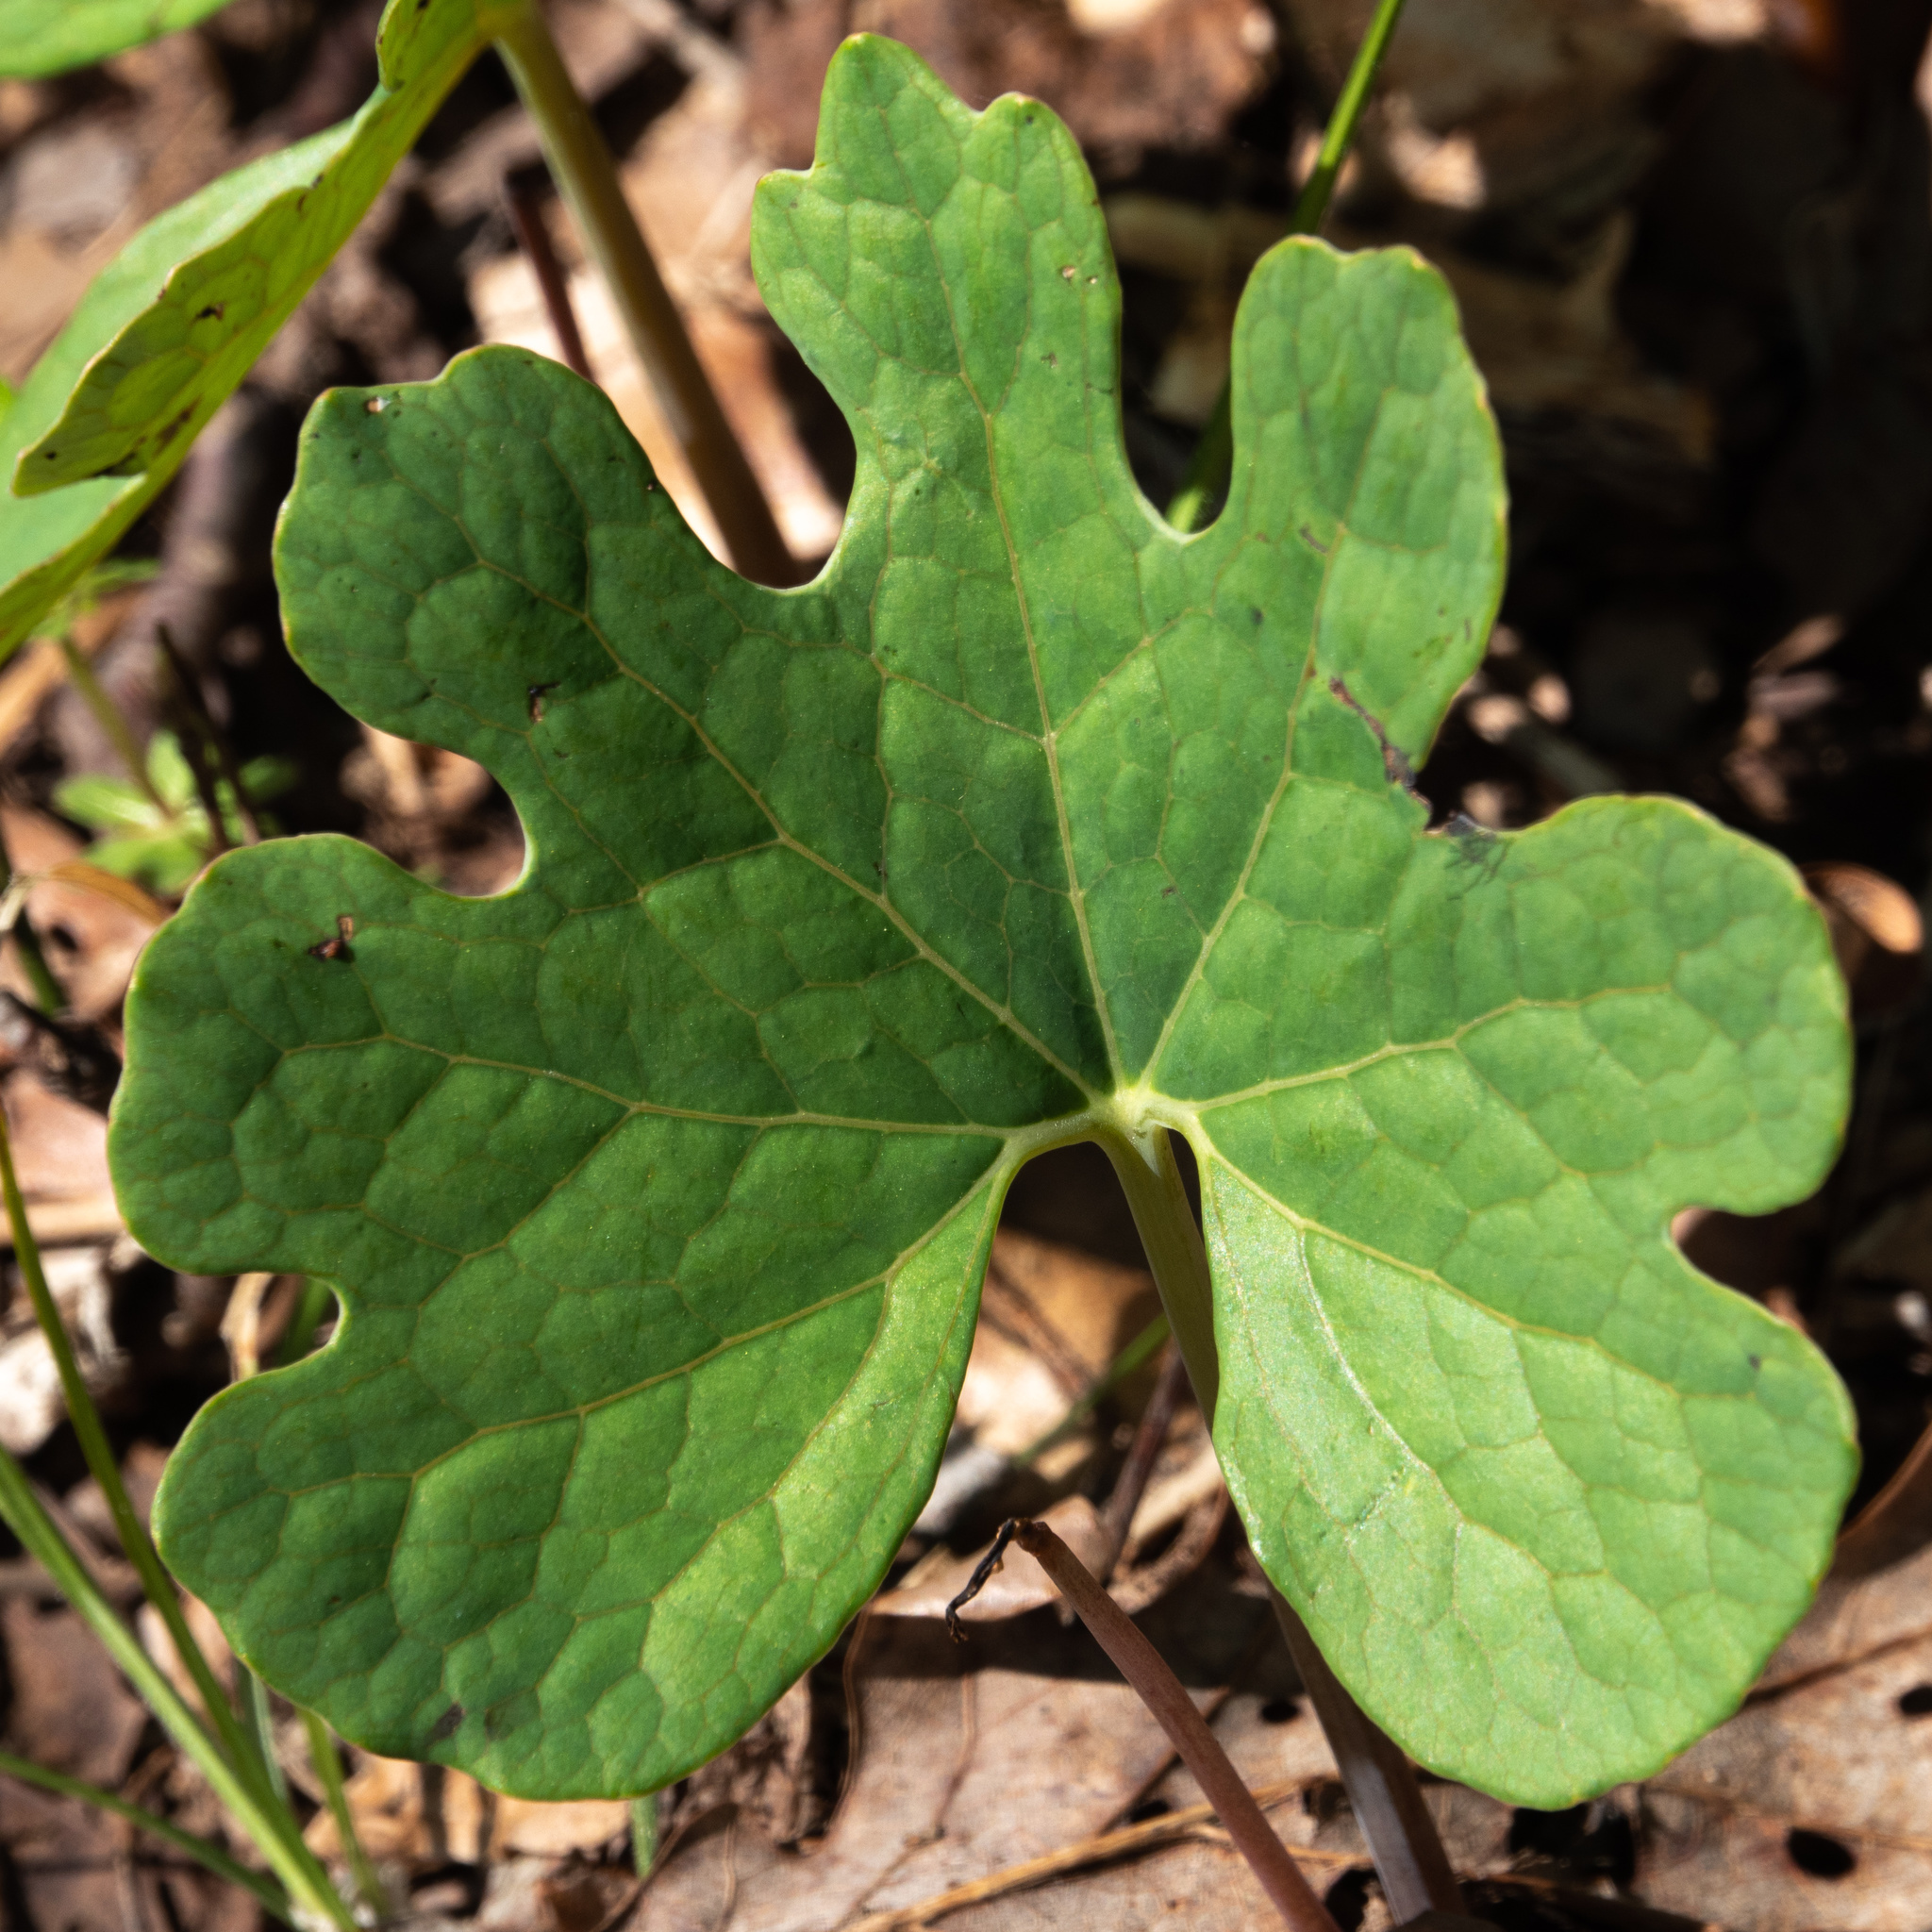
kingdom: Plantae
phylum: Tracheophyta
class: Magnoliopsida
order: Ranunculales
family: Papaveraceae
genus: Sanguinaria
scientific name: Sanguinaria canadensis
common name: Bloodroot
